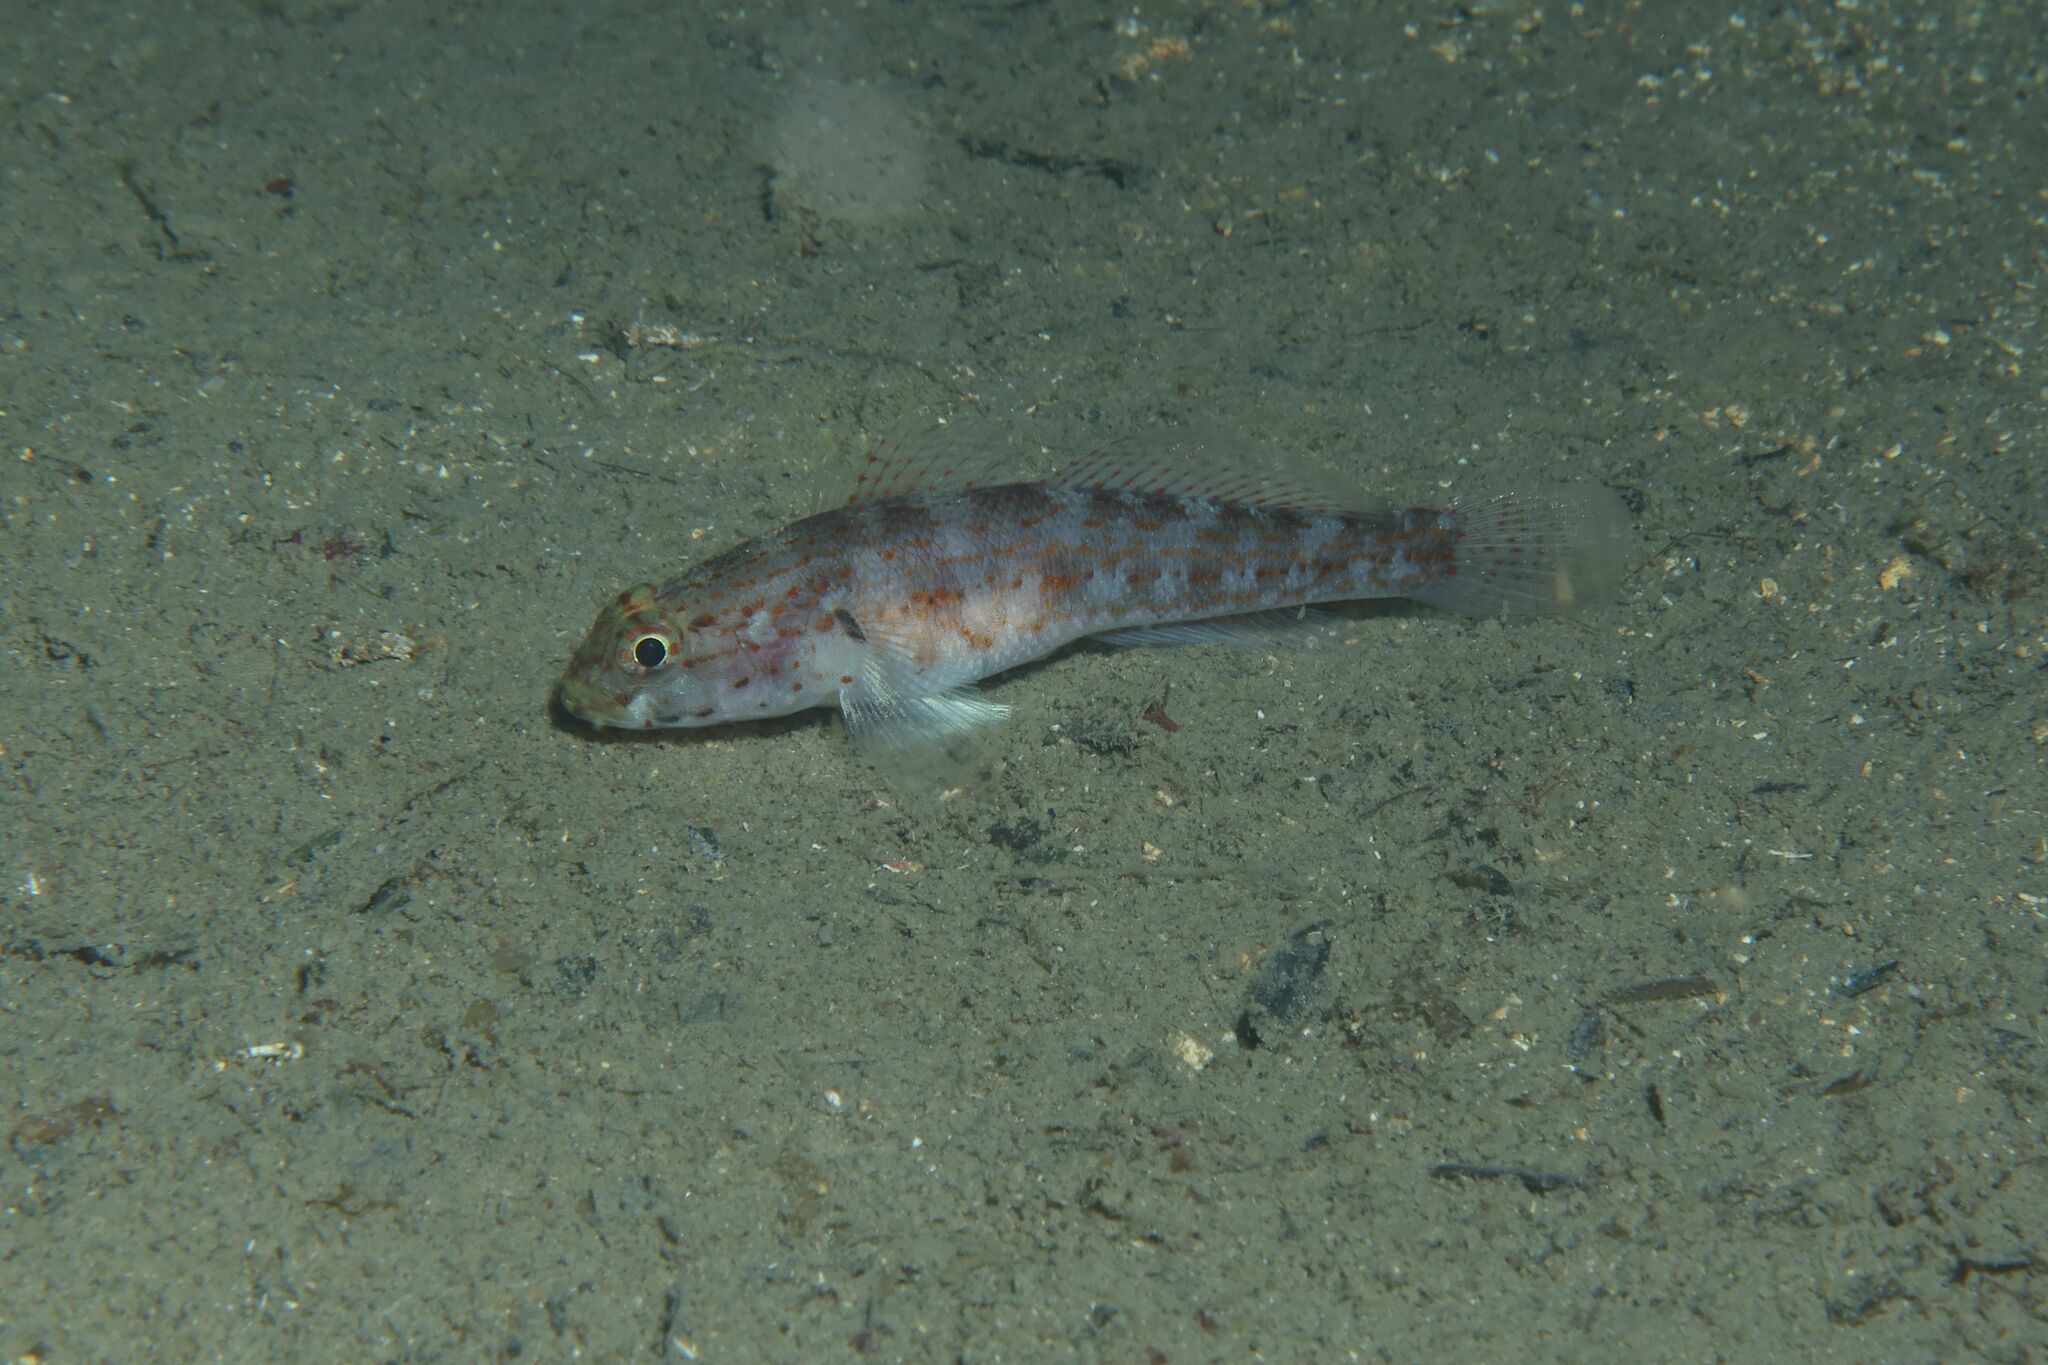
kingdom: Animalia
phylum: Chordata
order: Perciformes
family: Gobiidae
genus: Gobius
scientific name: Gobius xanthocephalus
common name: Golden goby
